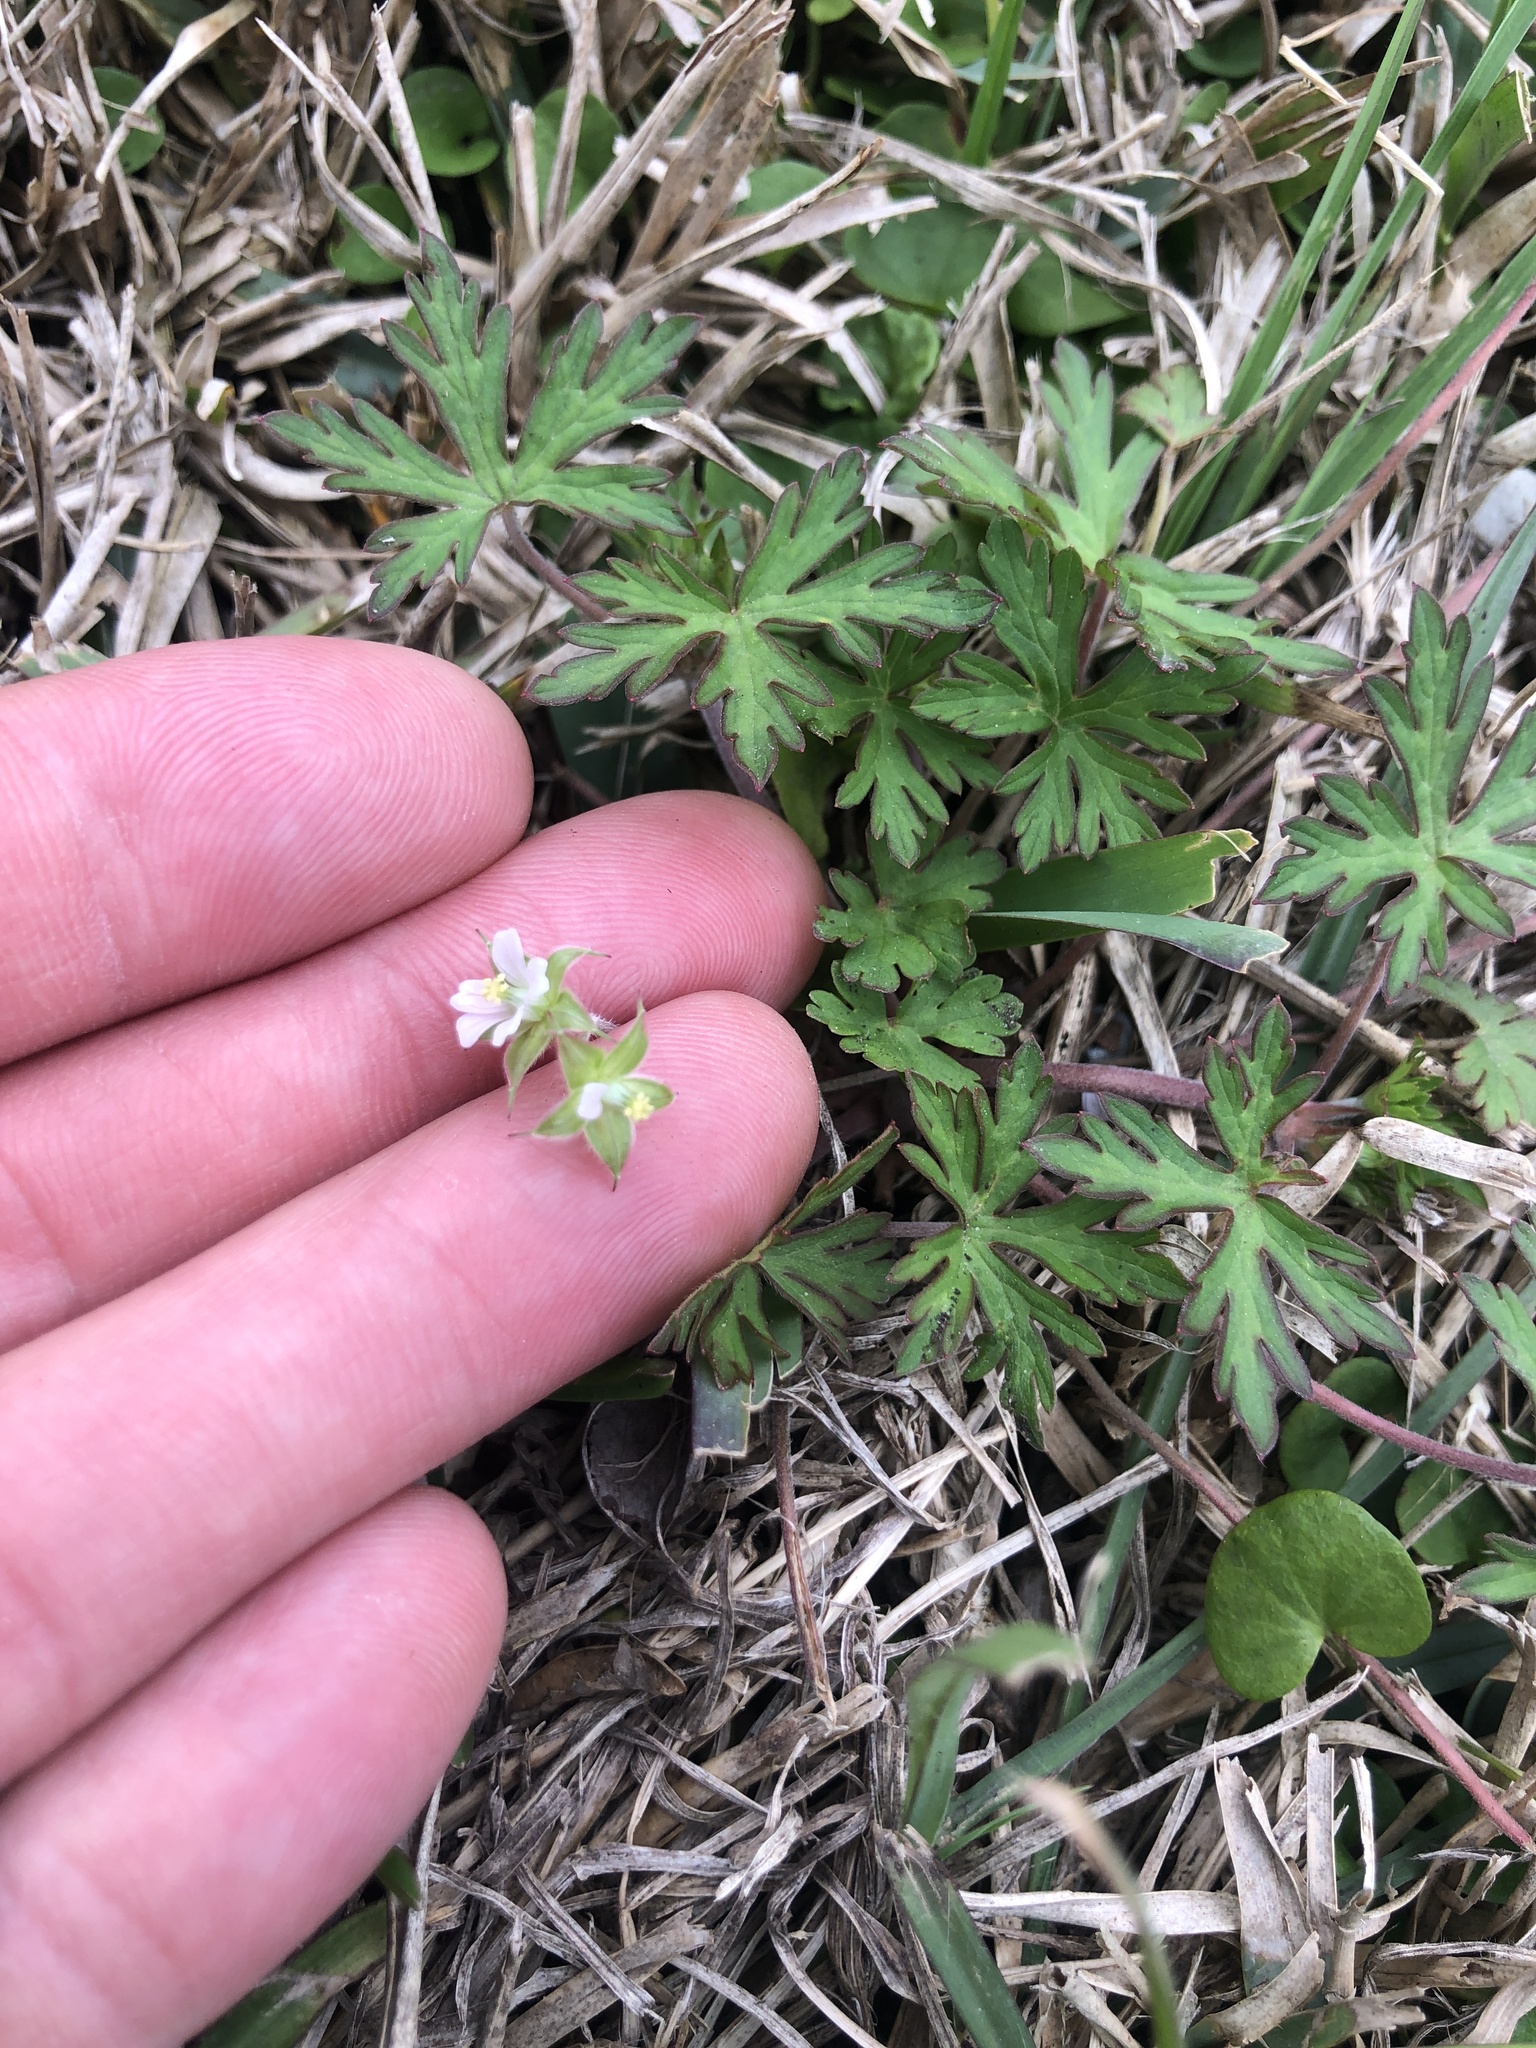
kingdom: Plantae
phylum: Tracheophyta
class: Magnoliopsida
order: Geraniales
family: Geraniaceae
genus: Geranium
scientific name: Geranium carolinianum
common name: Carolina crane's-bill
